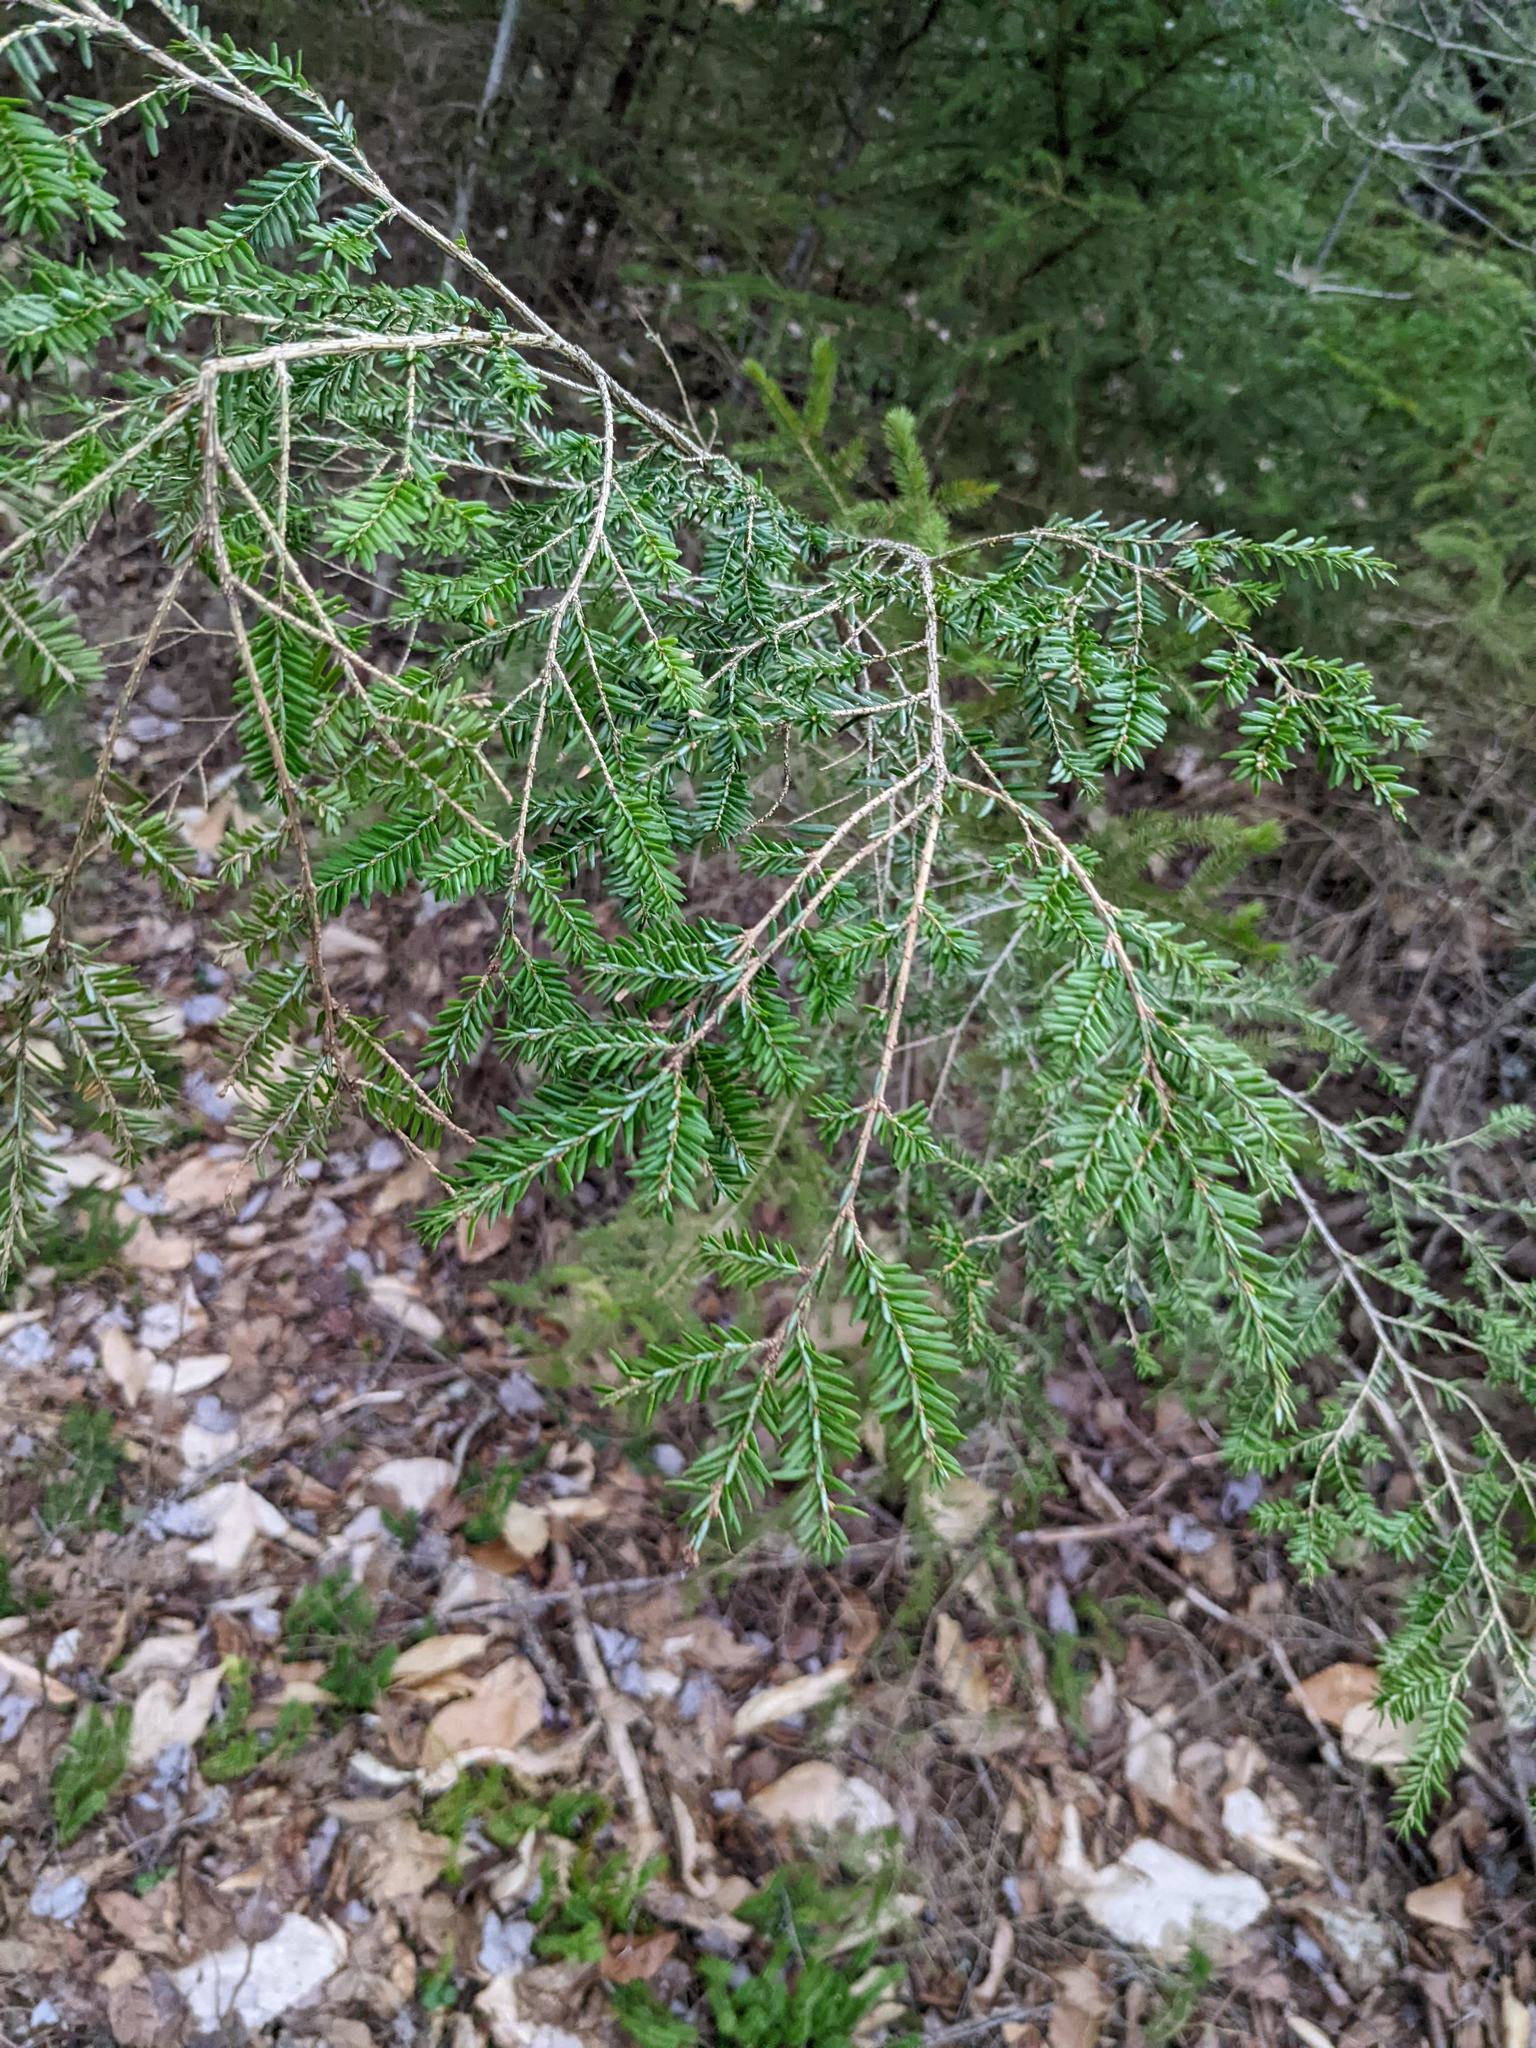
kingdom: Plantae
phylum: Tracheophyta
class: Pinopsida
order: Pinales
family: Pinaceae
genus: Tsuga
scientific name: Tsuga canadensis
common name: Eastern hemlock
